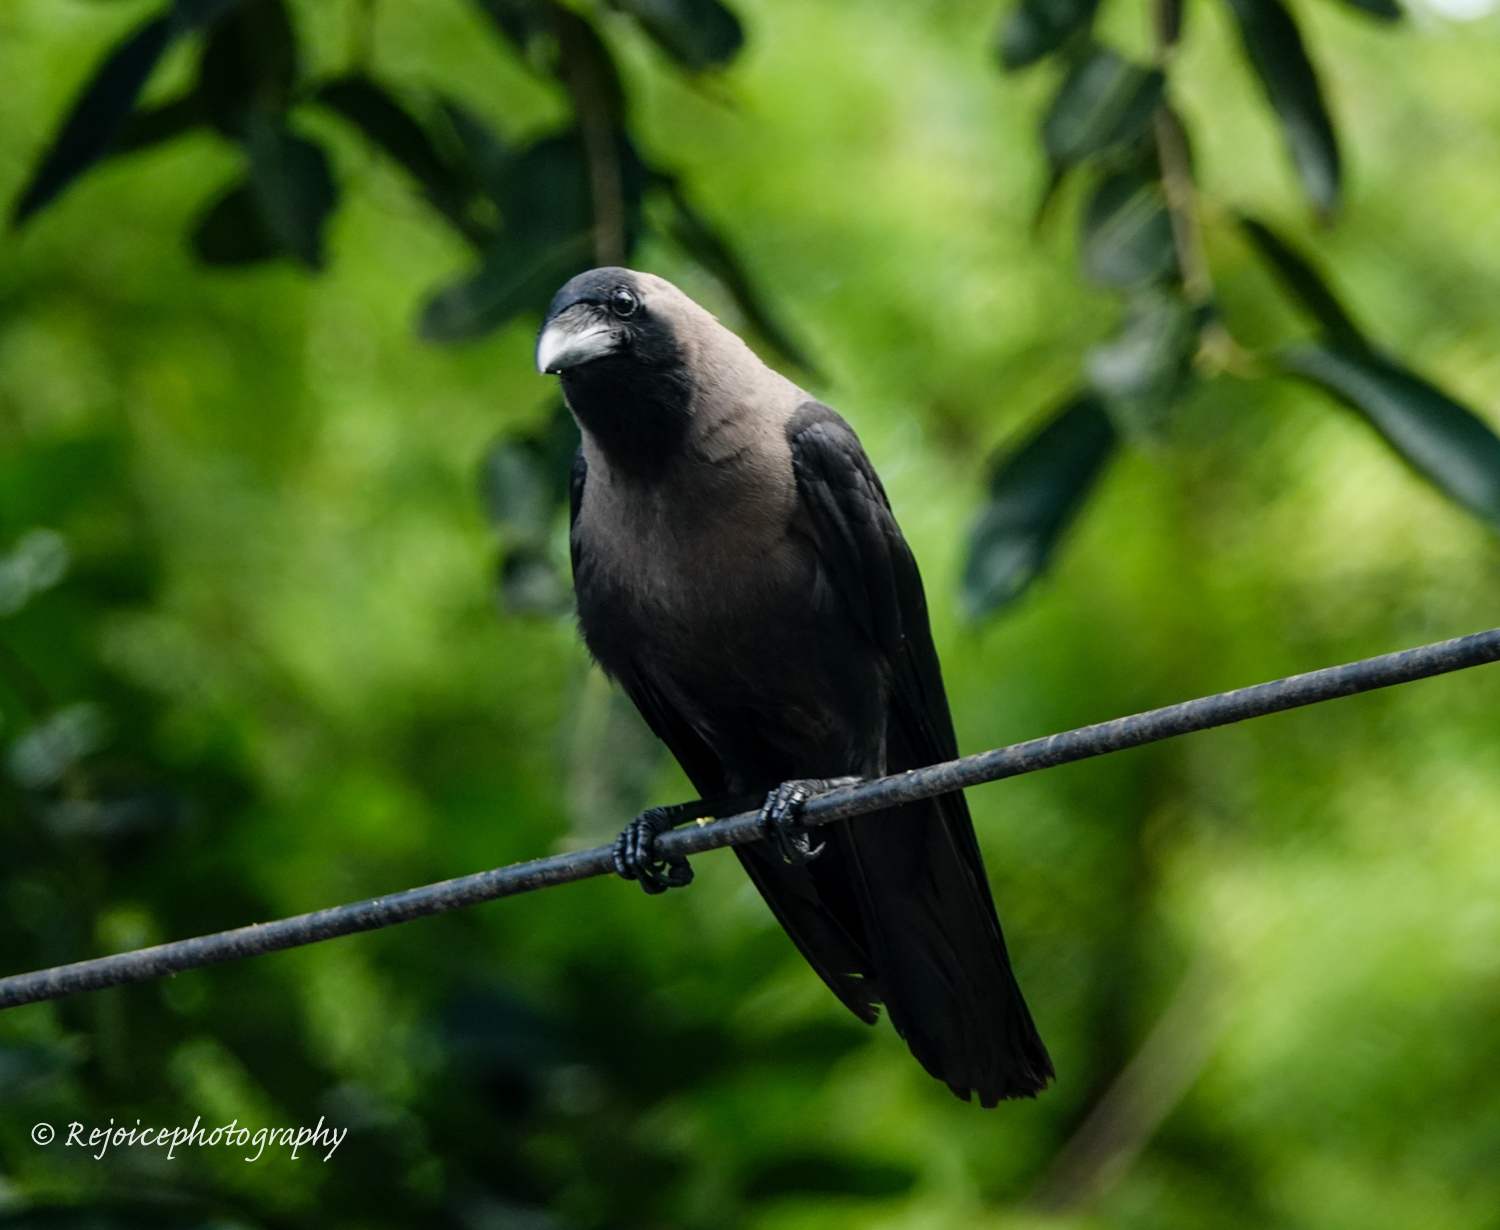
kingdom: Animalia
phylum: Chordata
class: Aves
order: Passeriformes
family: Corvidae
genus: Corvus
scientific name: Corvus splendens
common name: House crow
